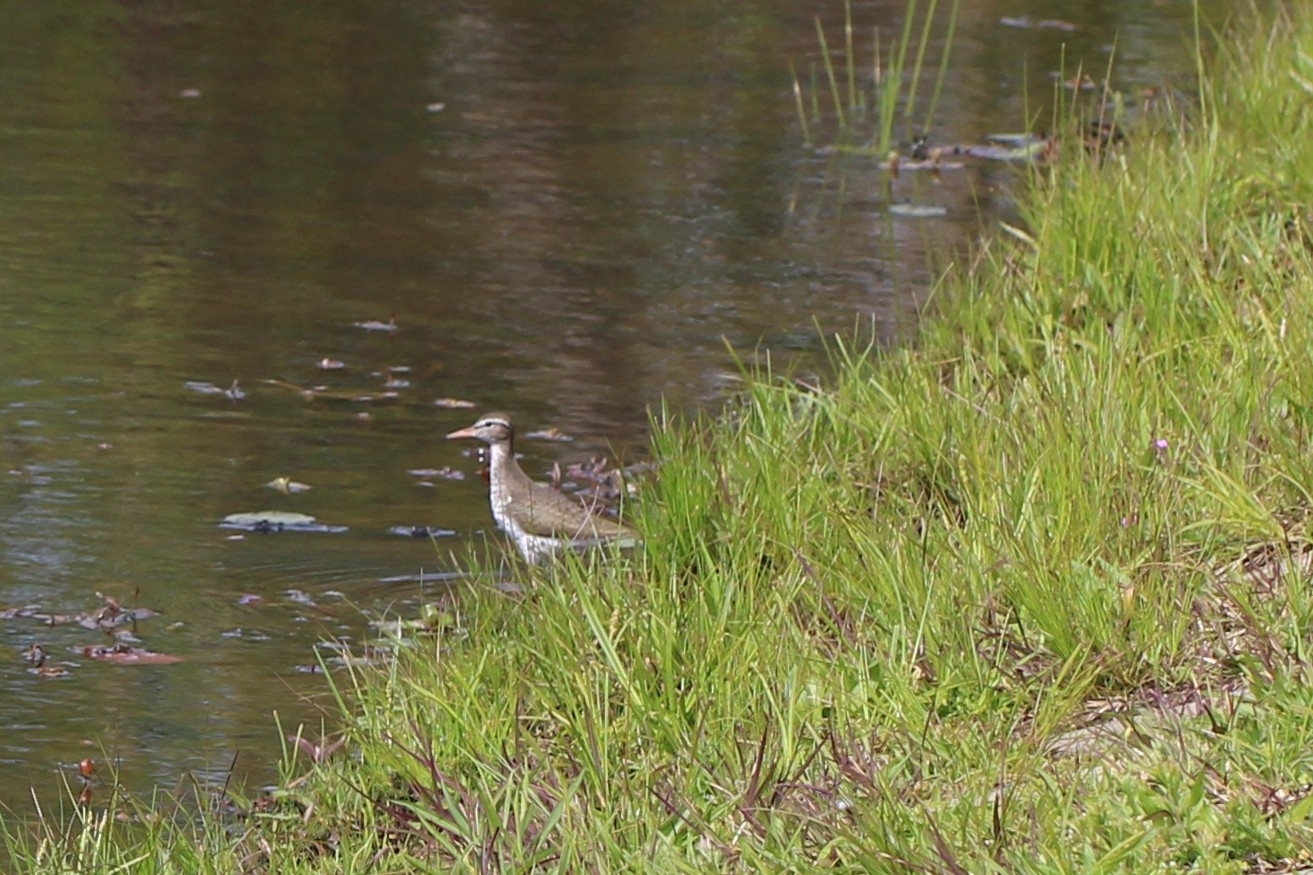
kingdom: Animalia
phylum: Chordata
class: Aves
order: Charadriiformes
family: Scolopacidae
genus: Actitis
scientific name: Actitis macularius
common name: Spotted sandpiper
